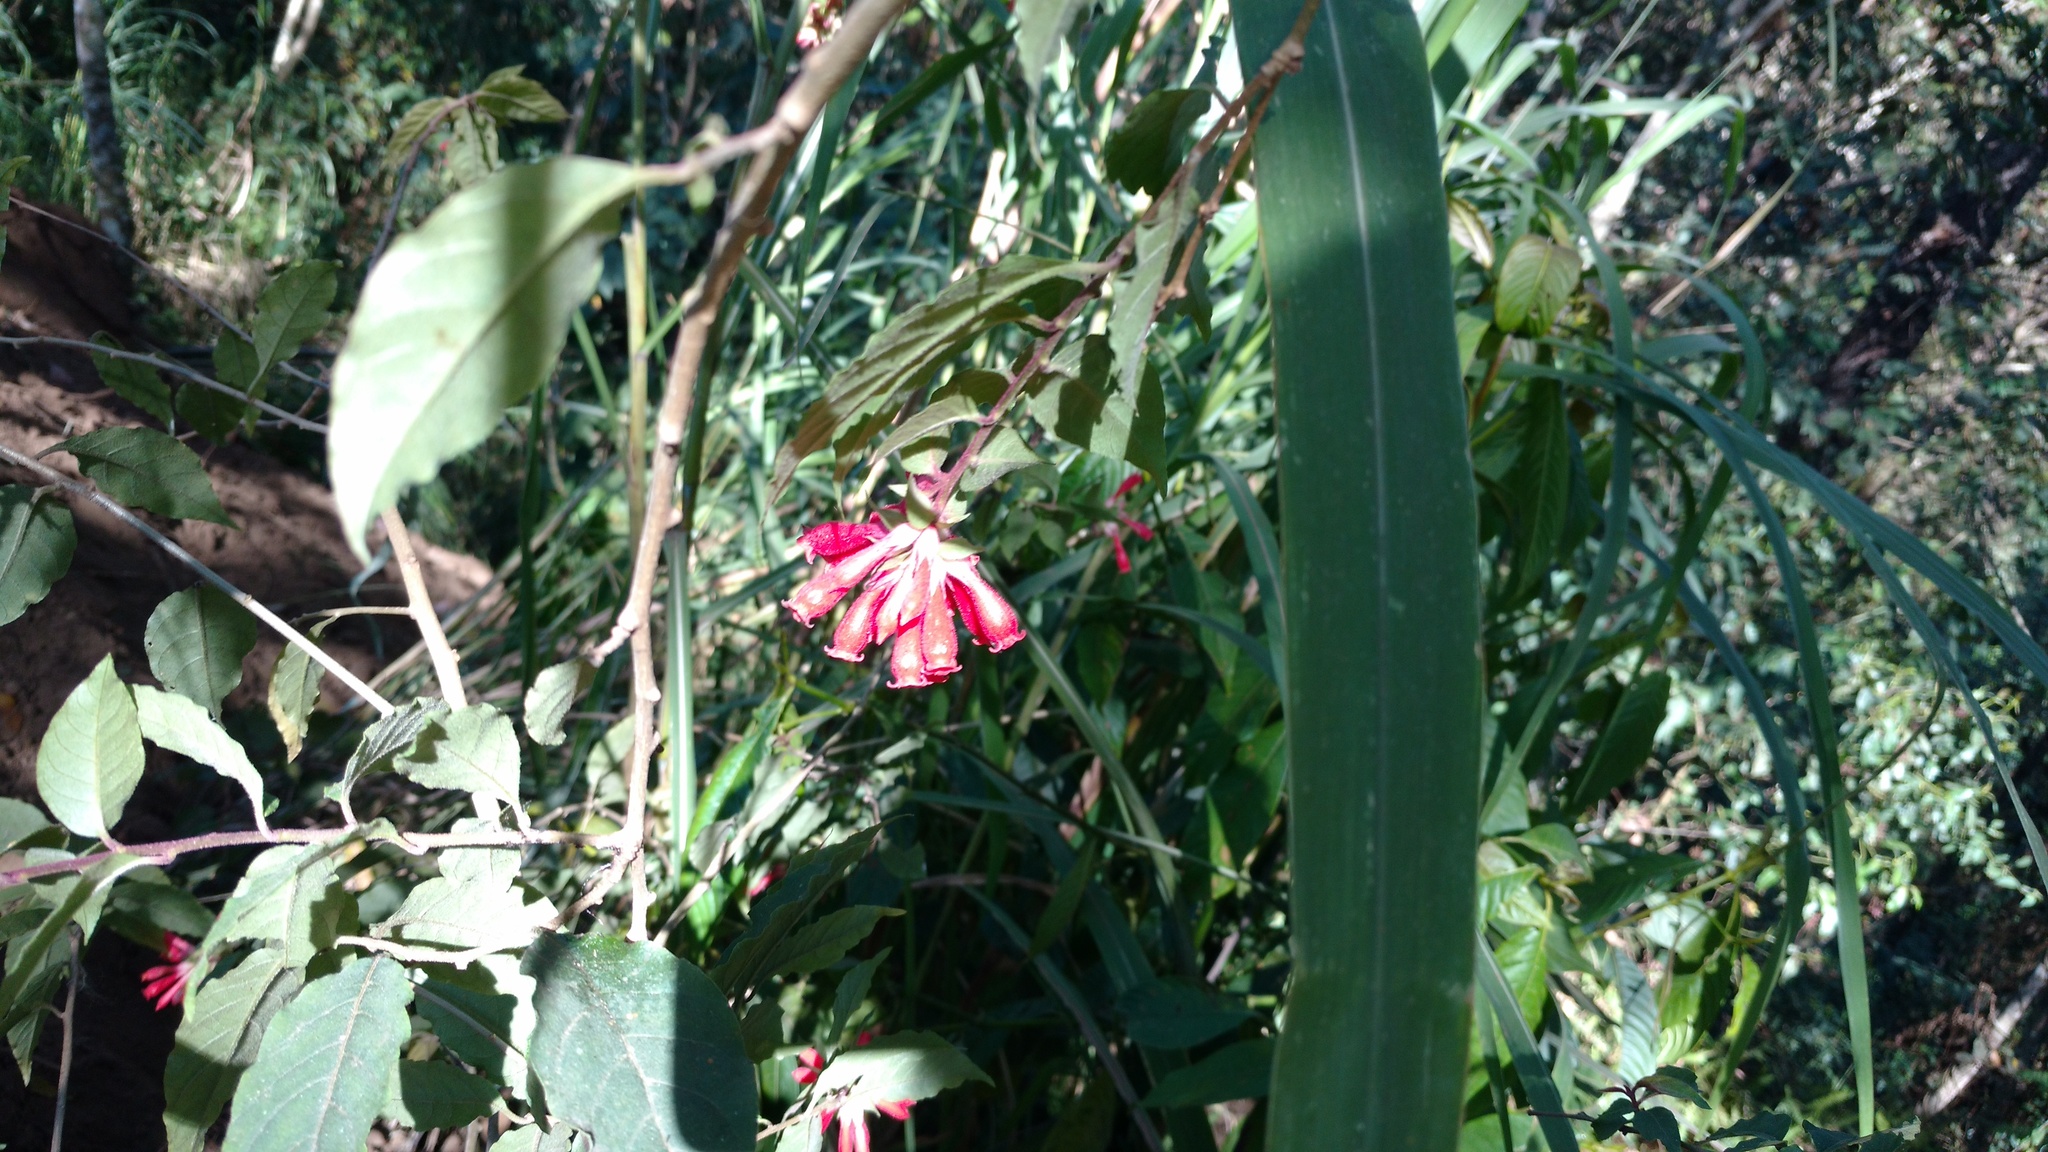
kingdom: Plantae
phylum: Tracheophyta
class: Magnoliopsida
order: Solanales
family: Solanaceae
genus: Cestrum
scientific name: Cestrum fasciculatum
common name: Early jessamine
